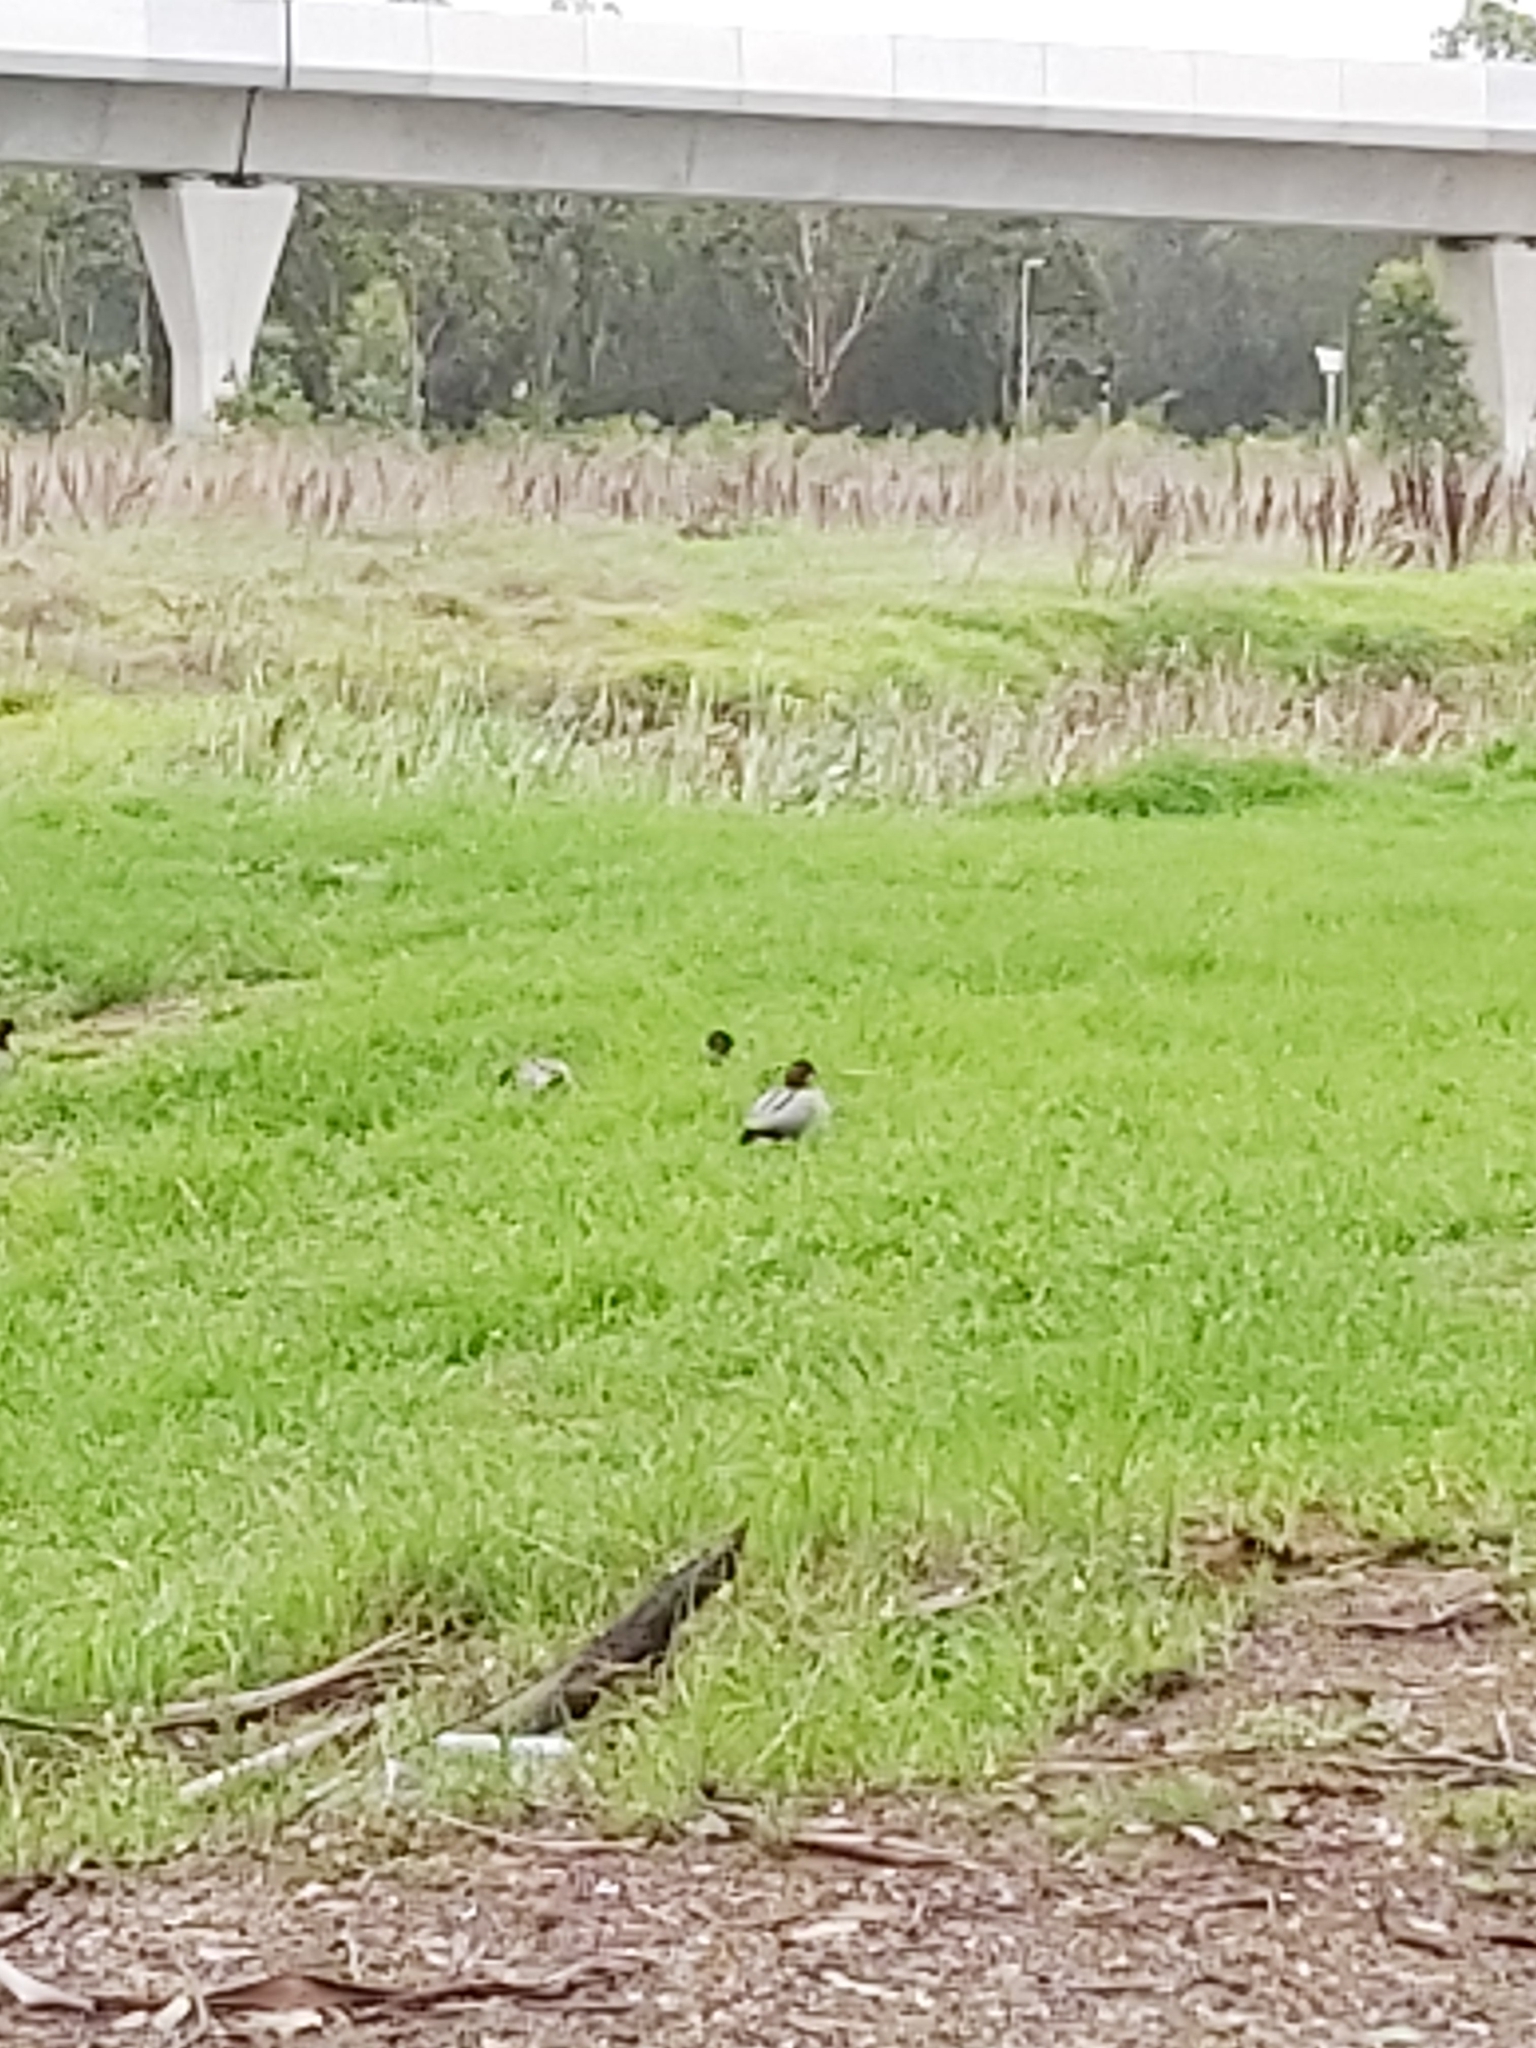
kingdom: Animalia
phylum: Chordata
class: Aves
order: Anseriformes
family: Anatidae
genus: Chenonetta
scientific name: Chenonetta jubata
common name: Maned duck
